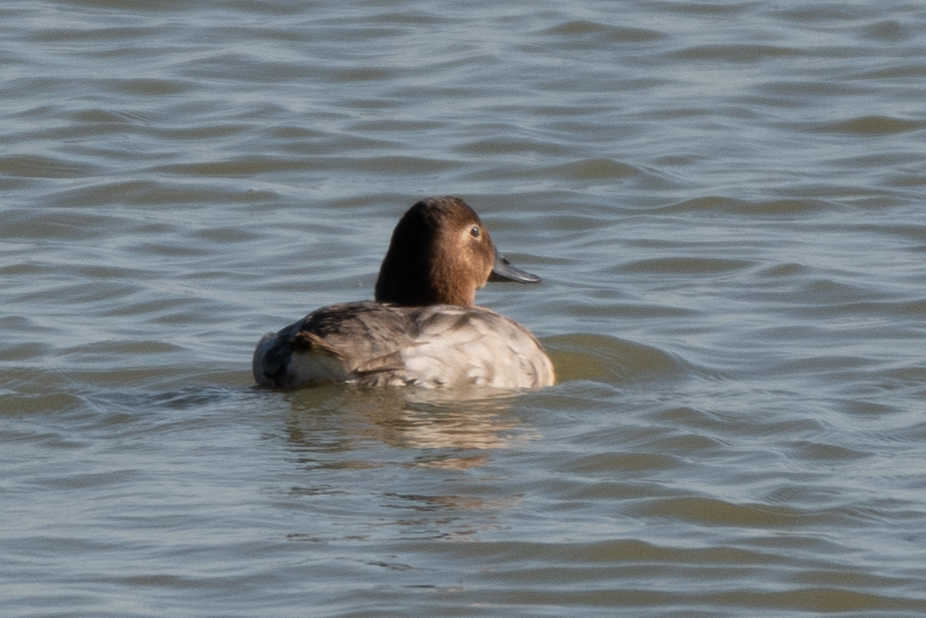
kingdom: Animalia
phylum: Chordata
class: Aves
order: Anseriformes
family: Anatidae
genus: Aythya
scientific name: Aythya valisineria
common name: Canvasback
